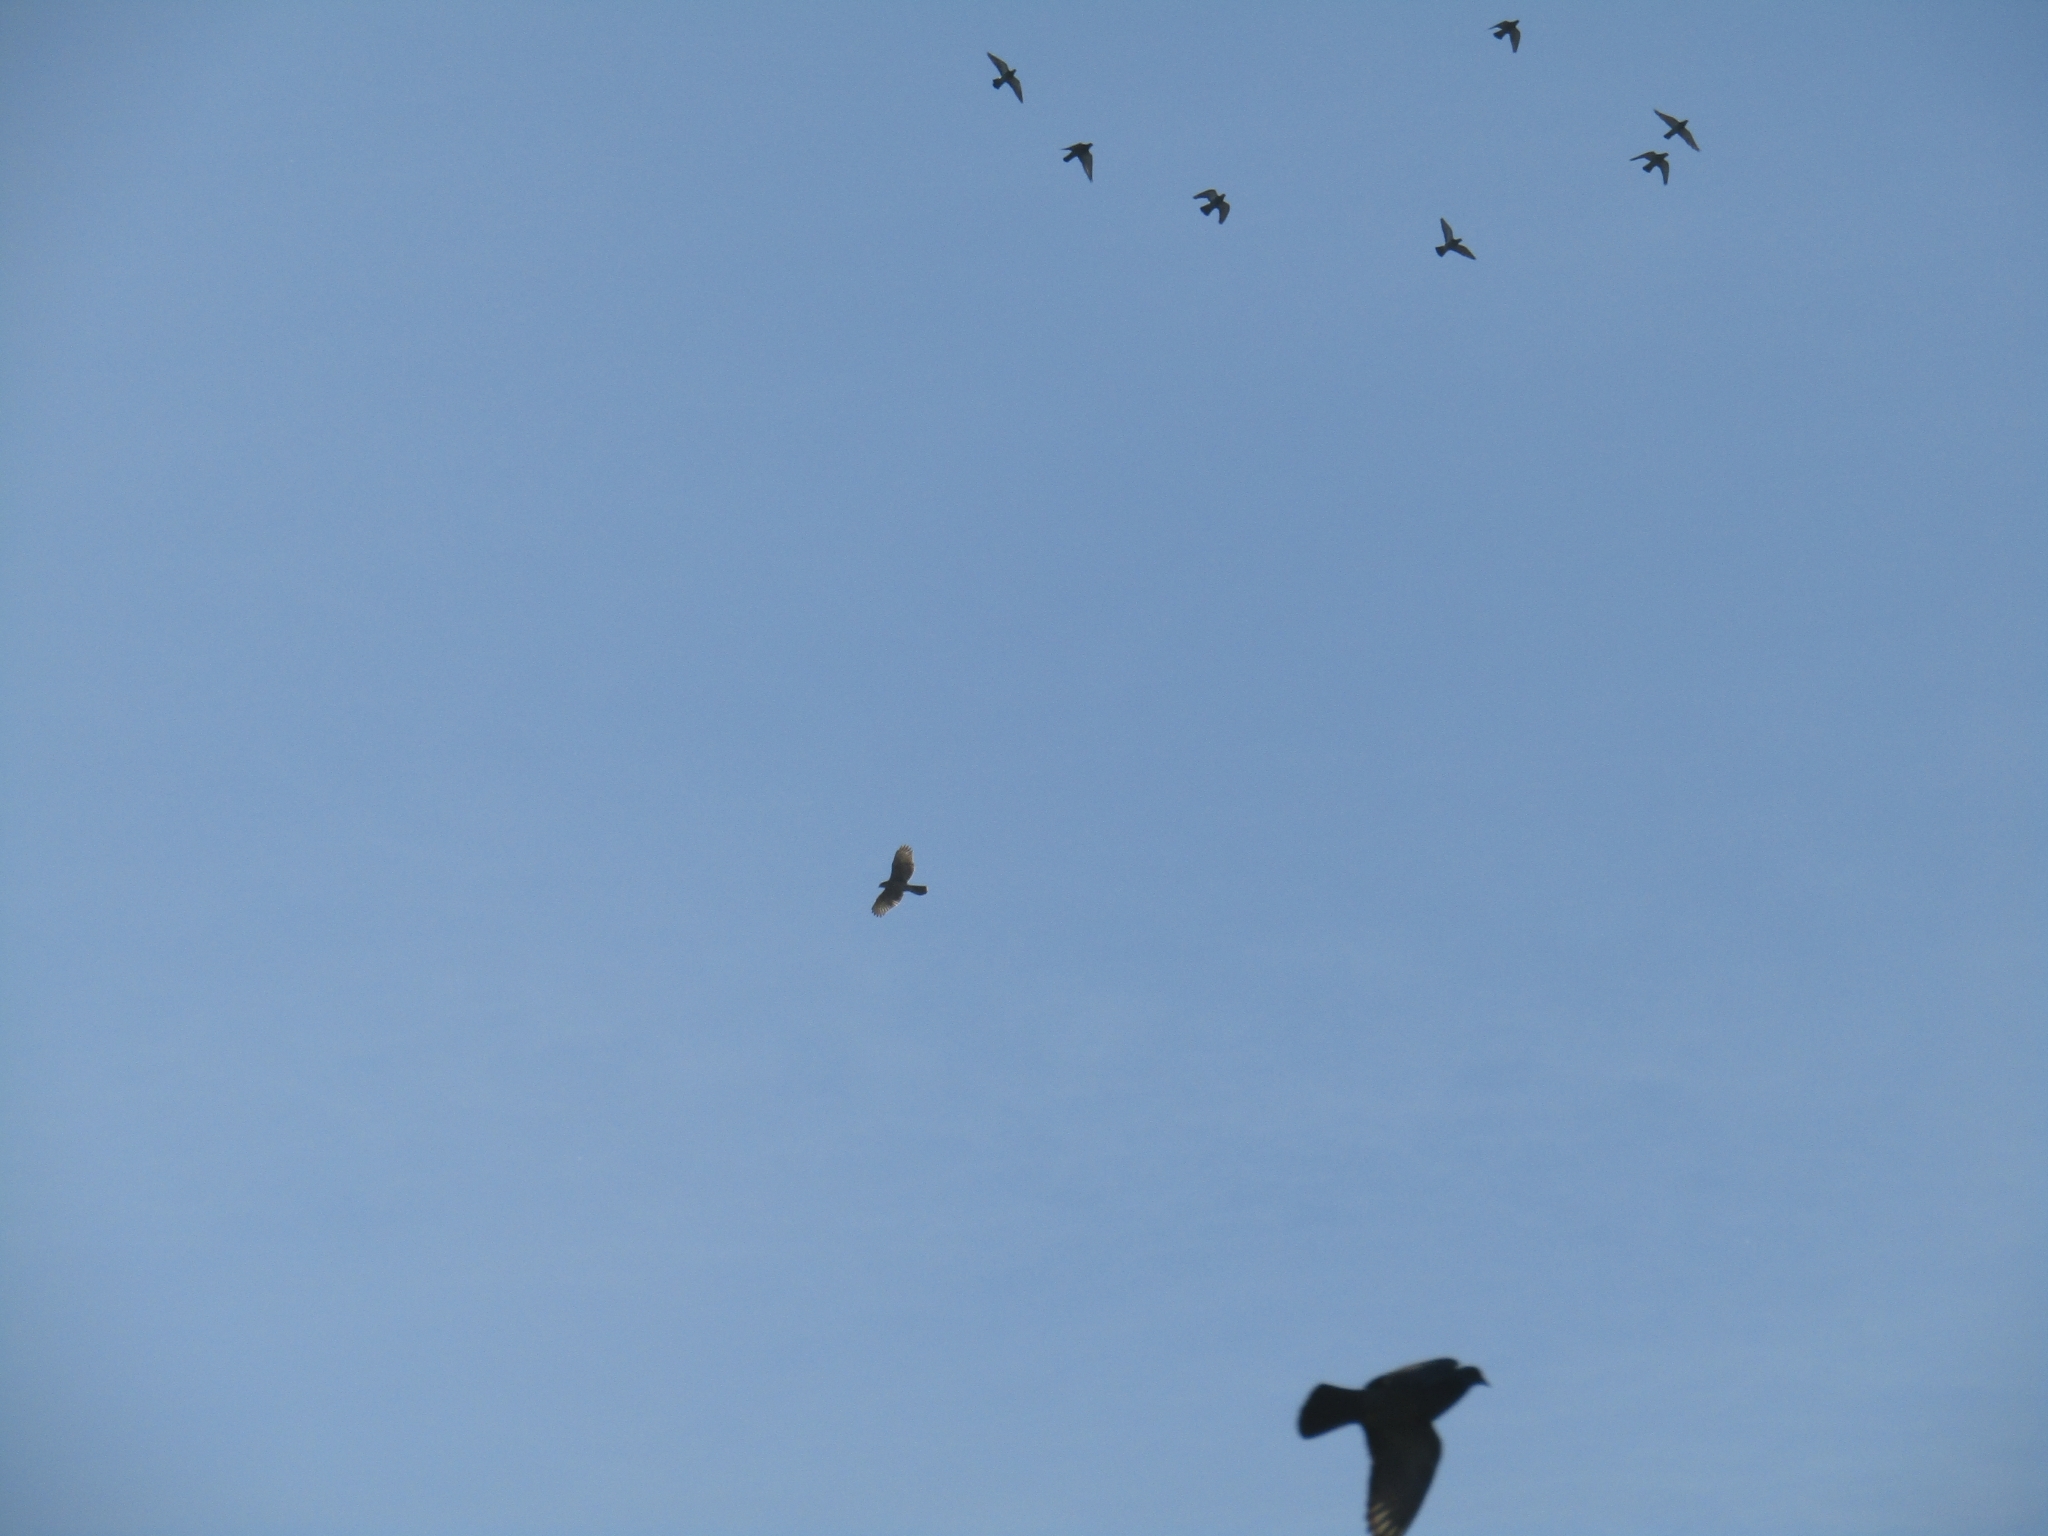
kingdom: Animalia
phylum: Chordata
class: Aves
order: Accipitriformes
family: Accipitridae
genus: Parabuteo
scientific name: Parabuteo unicinctus
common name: Harris's hawk
